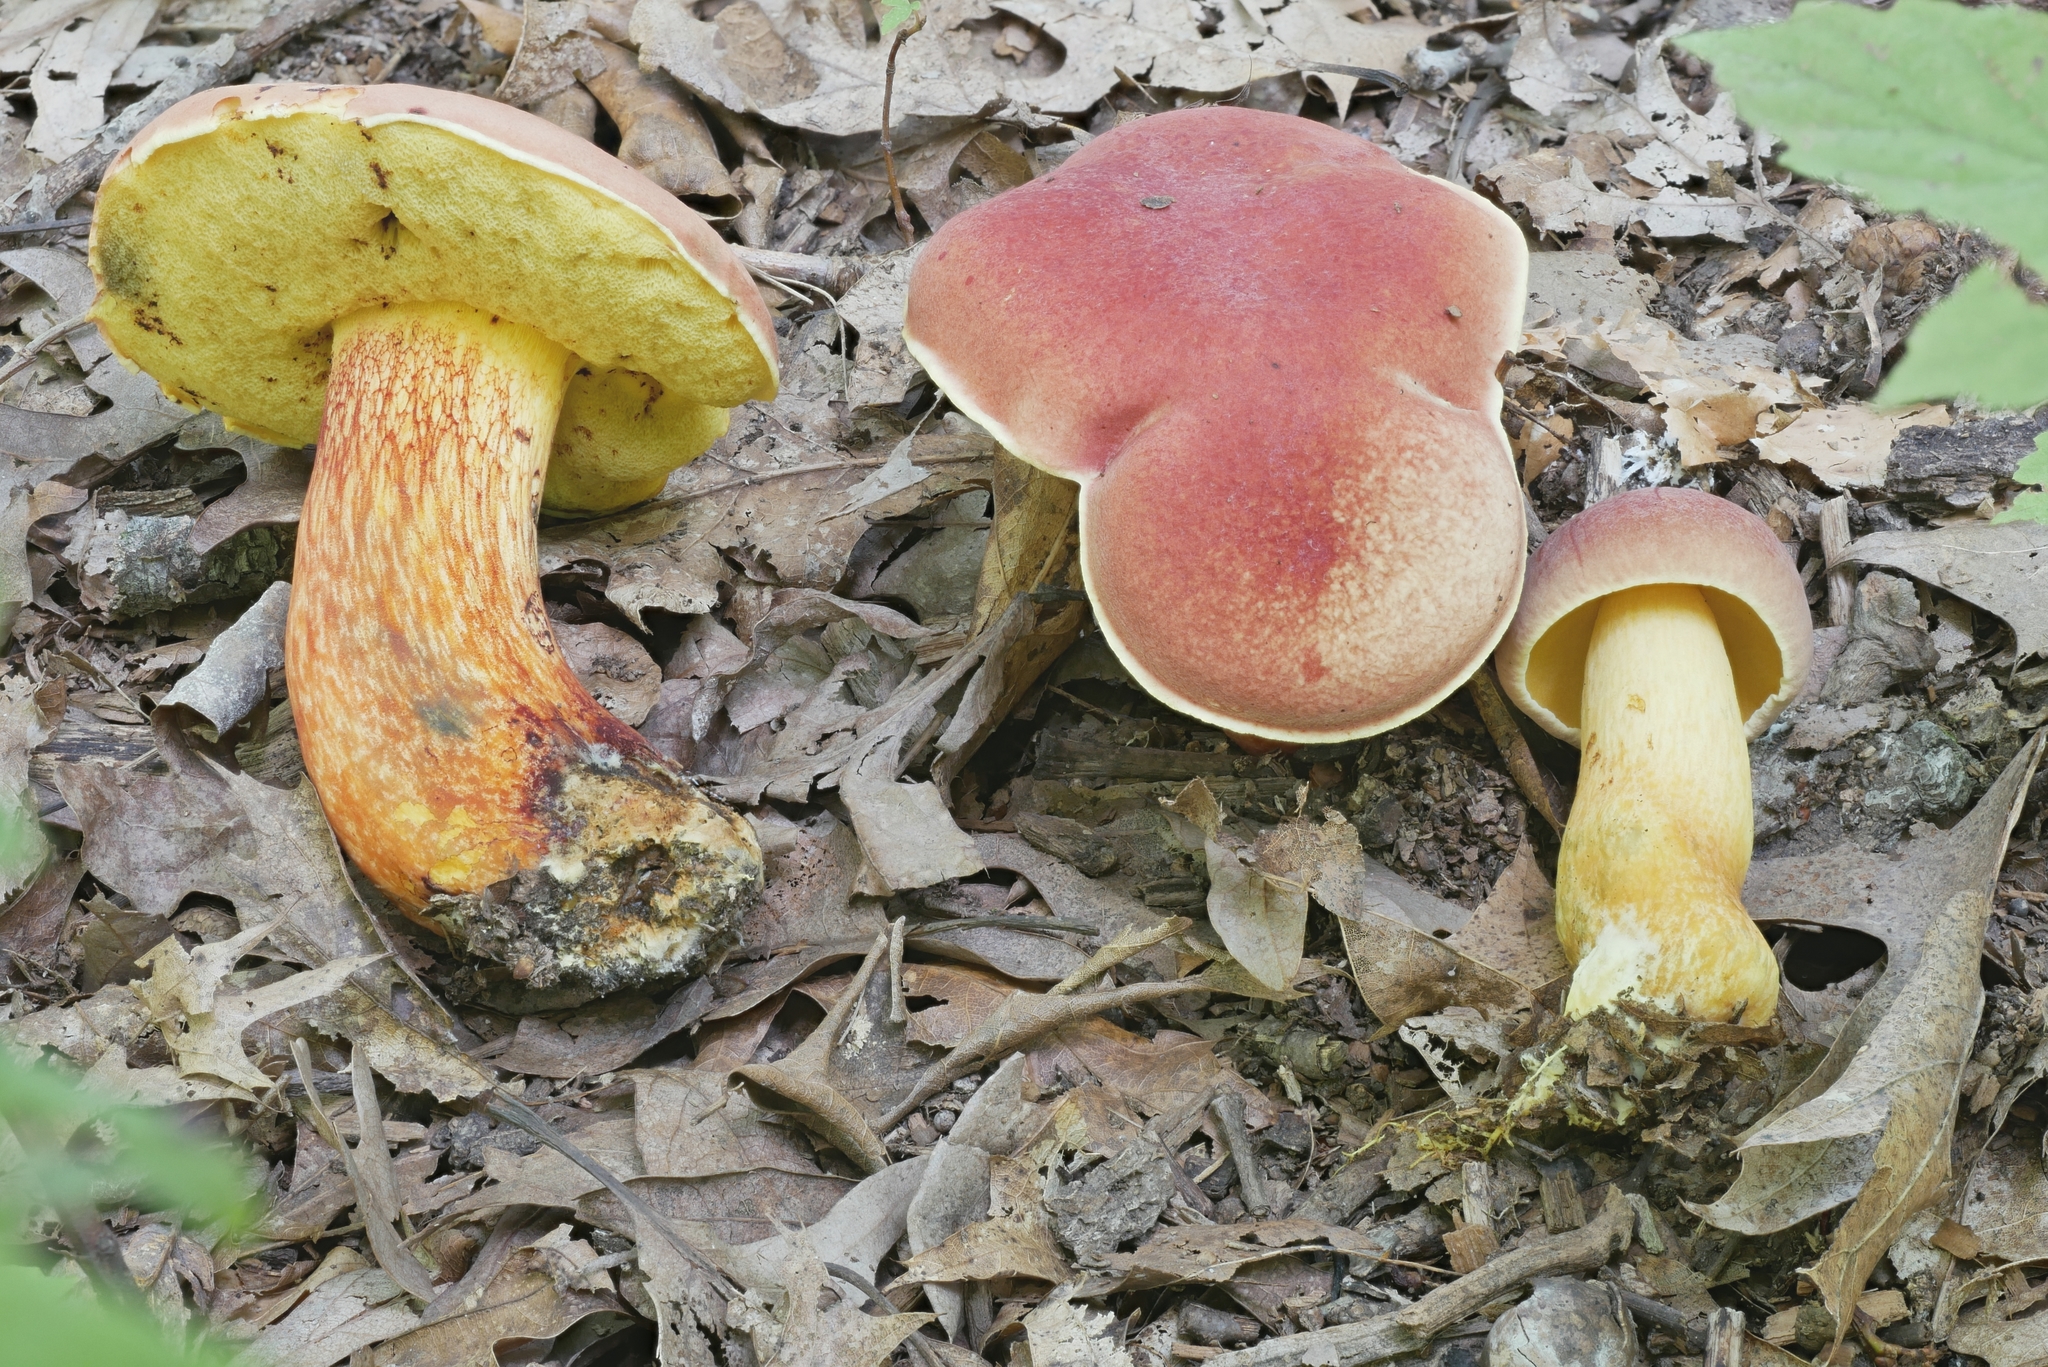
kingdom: Fungi
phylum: Basidiomycota
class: Agaricomycetes
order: Boletales
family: Boletaceae
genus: Pulchroboletus
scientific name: Pulchroboletus sclerotiorum
